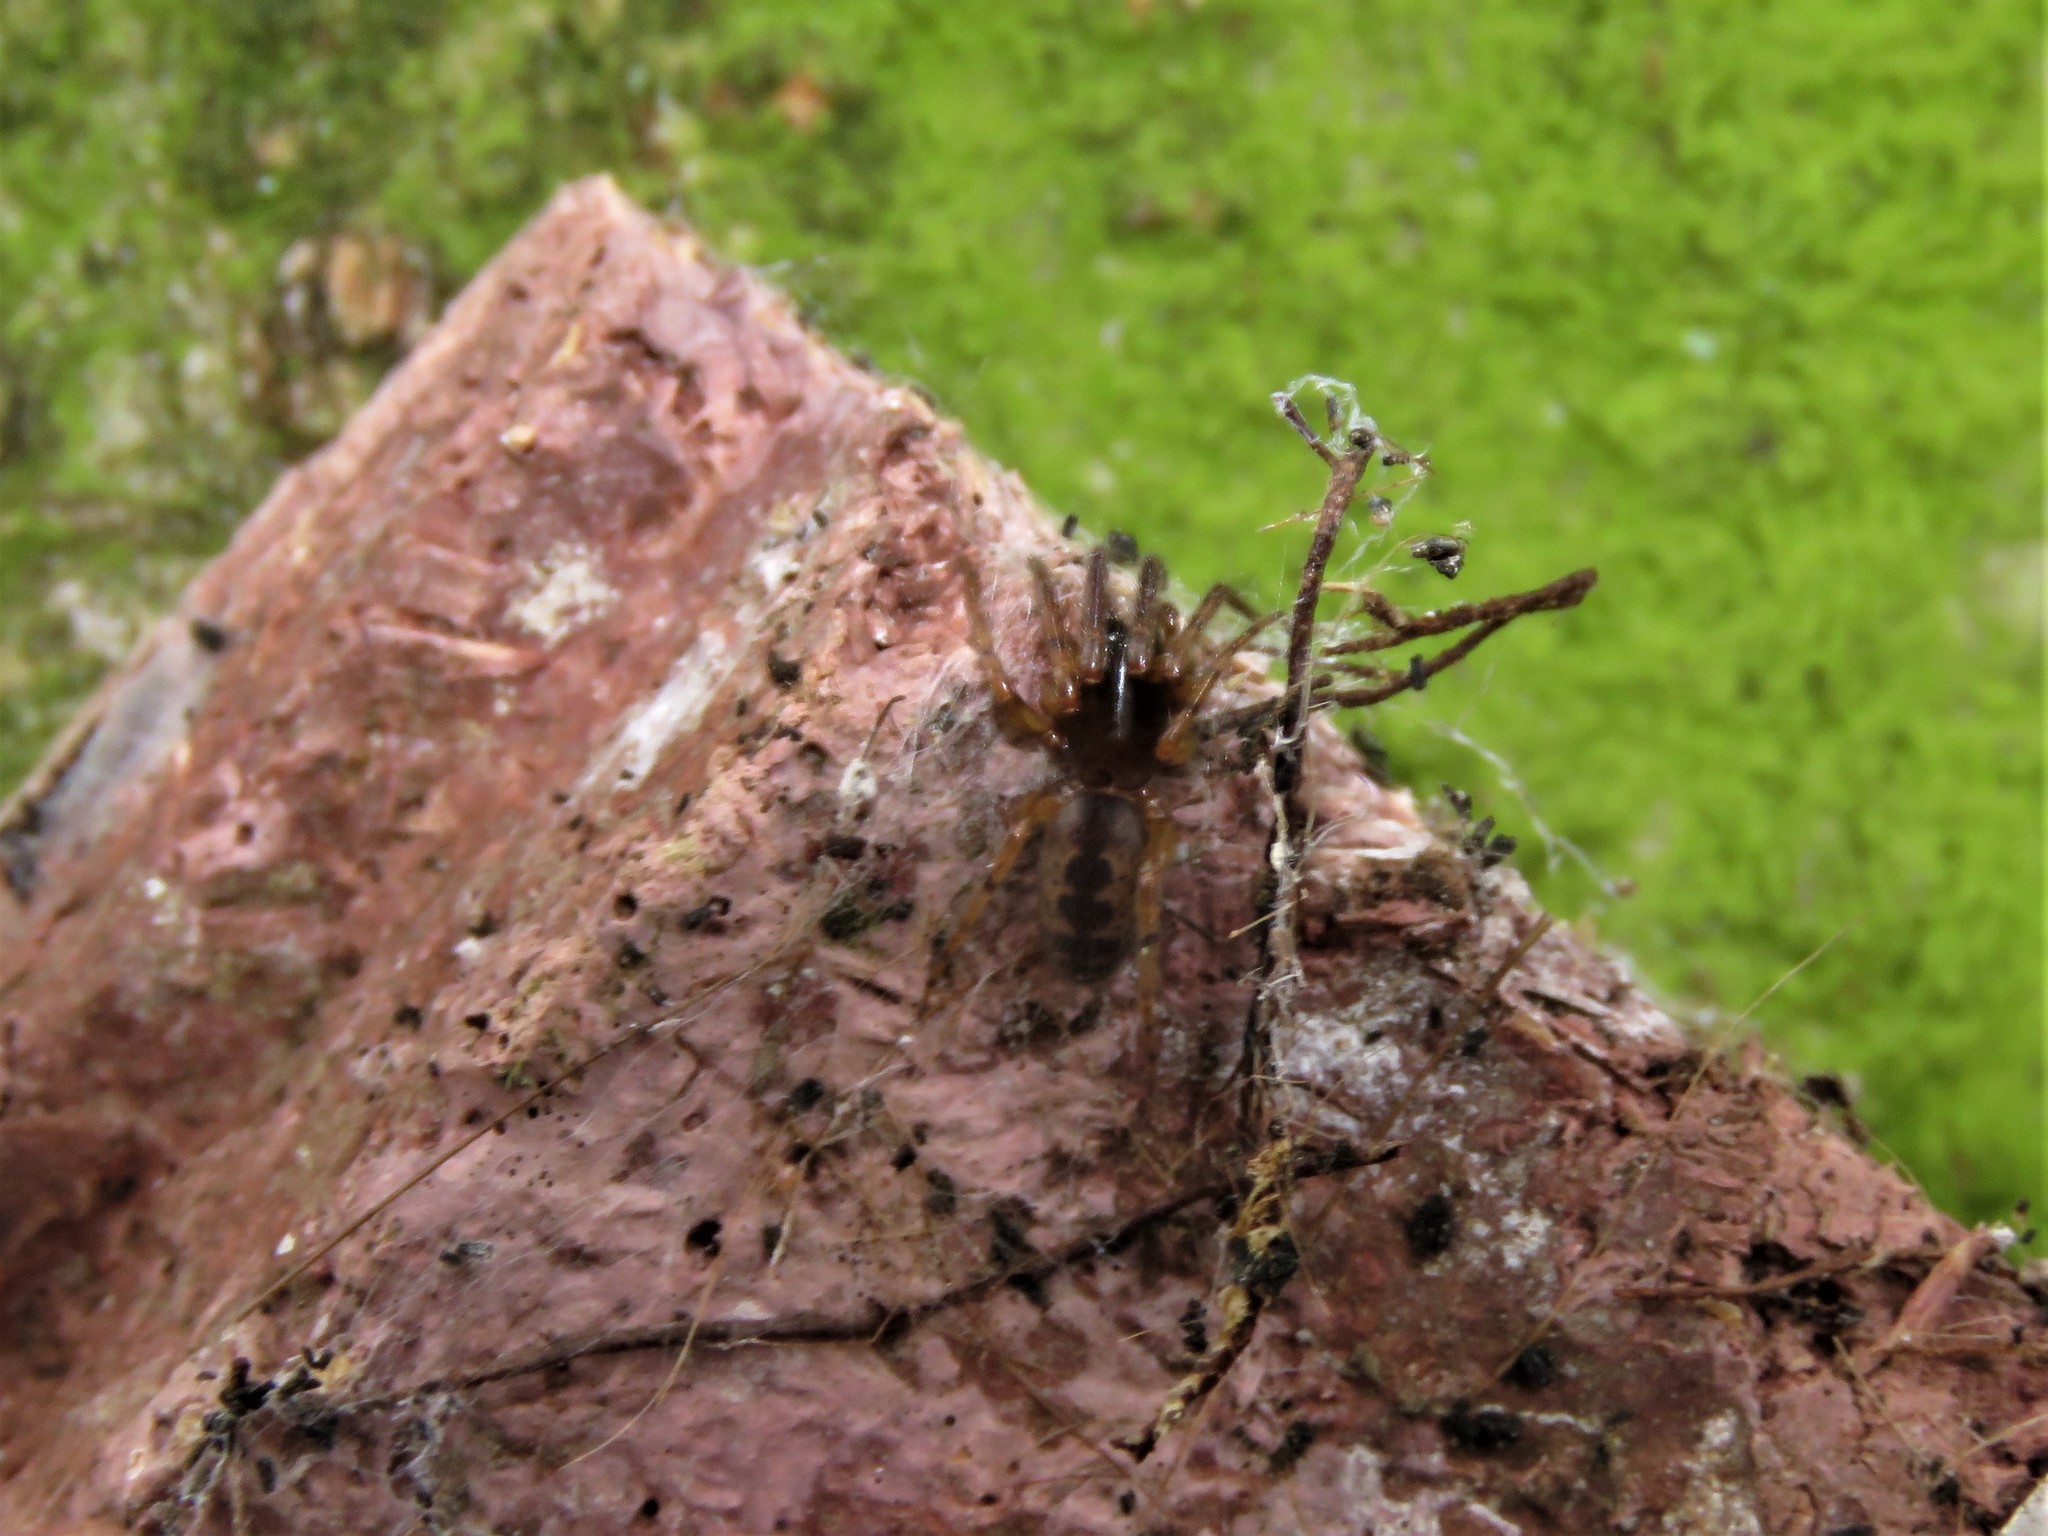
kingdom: Animalia
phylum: Arthropoda
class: Arachnida
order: Araneae
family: Segestriidae
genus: Segestria
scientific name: Segestria senoculata
